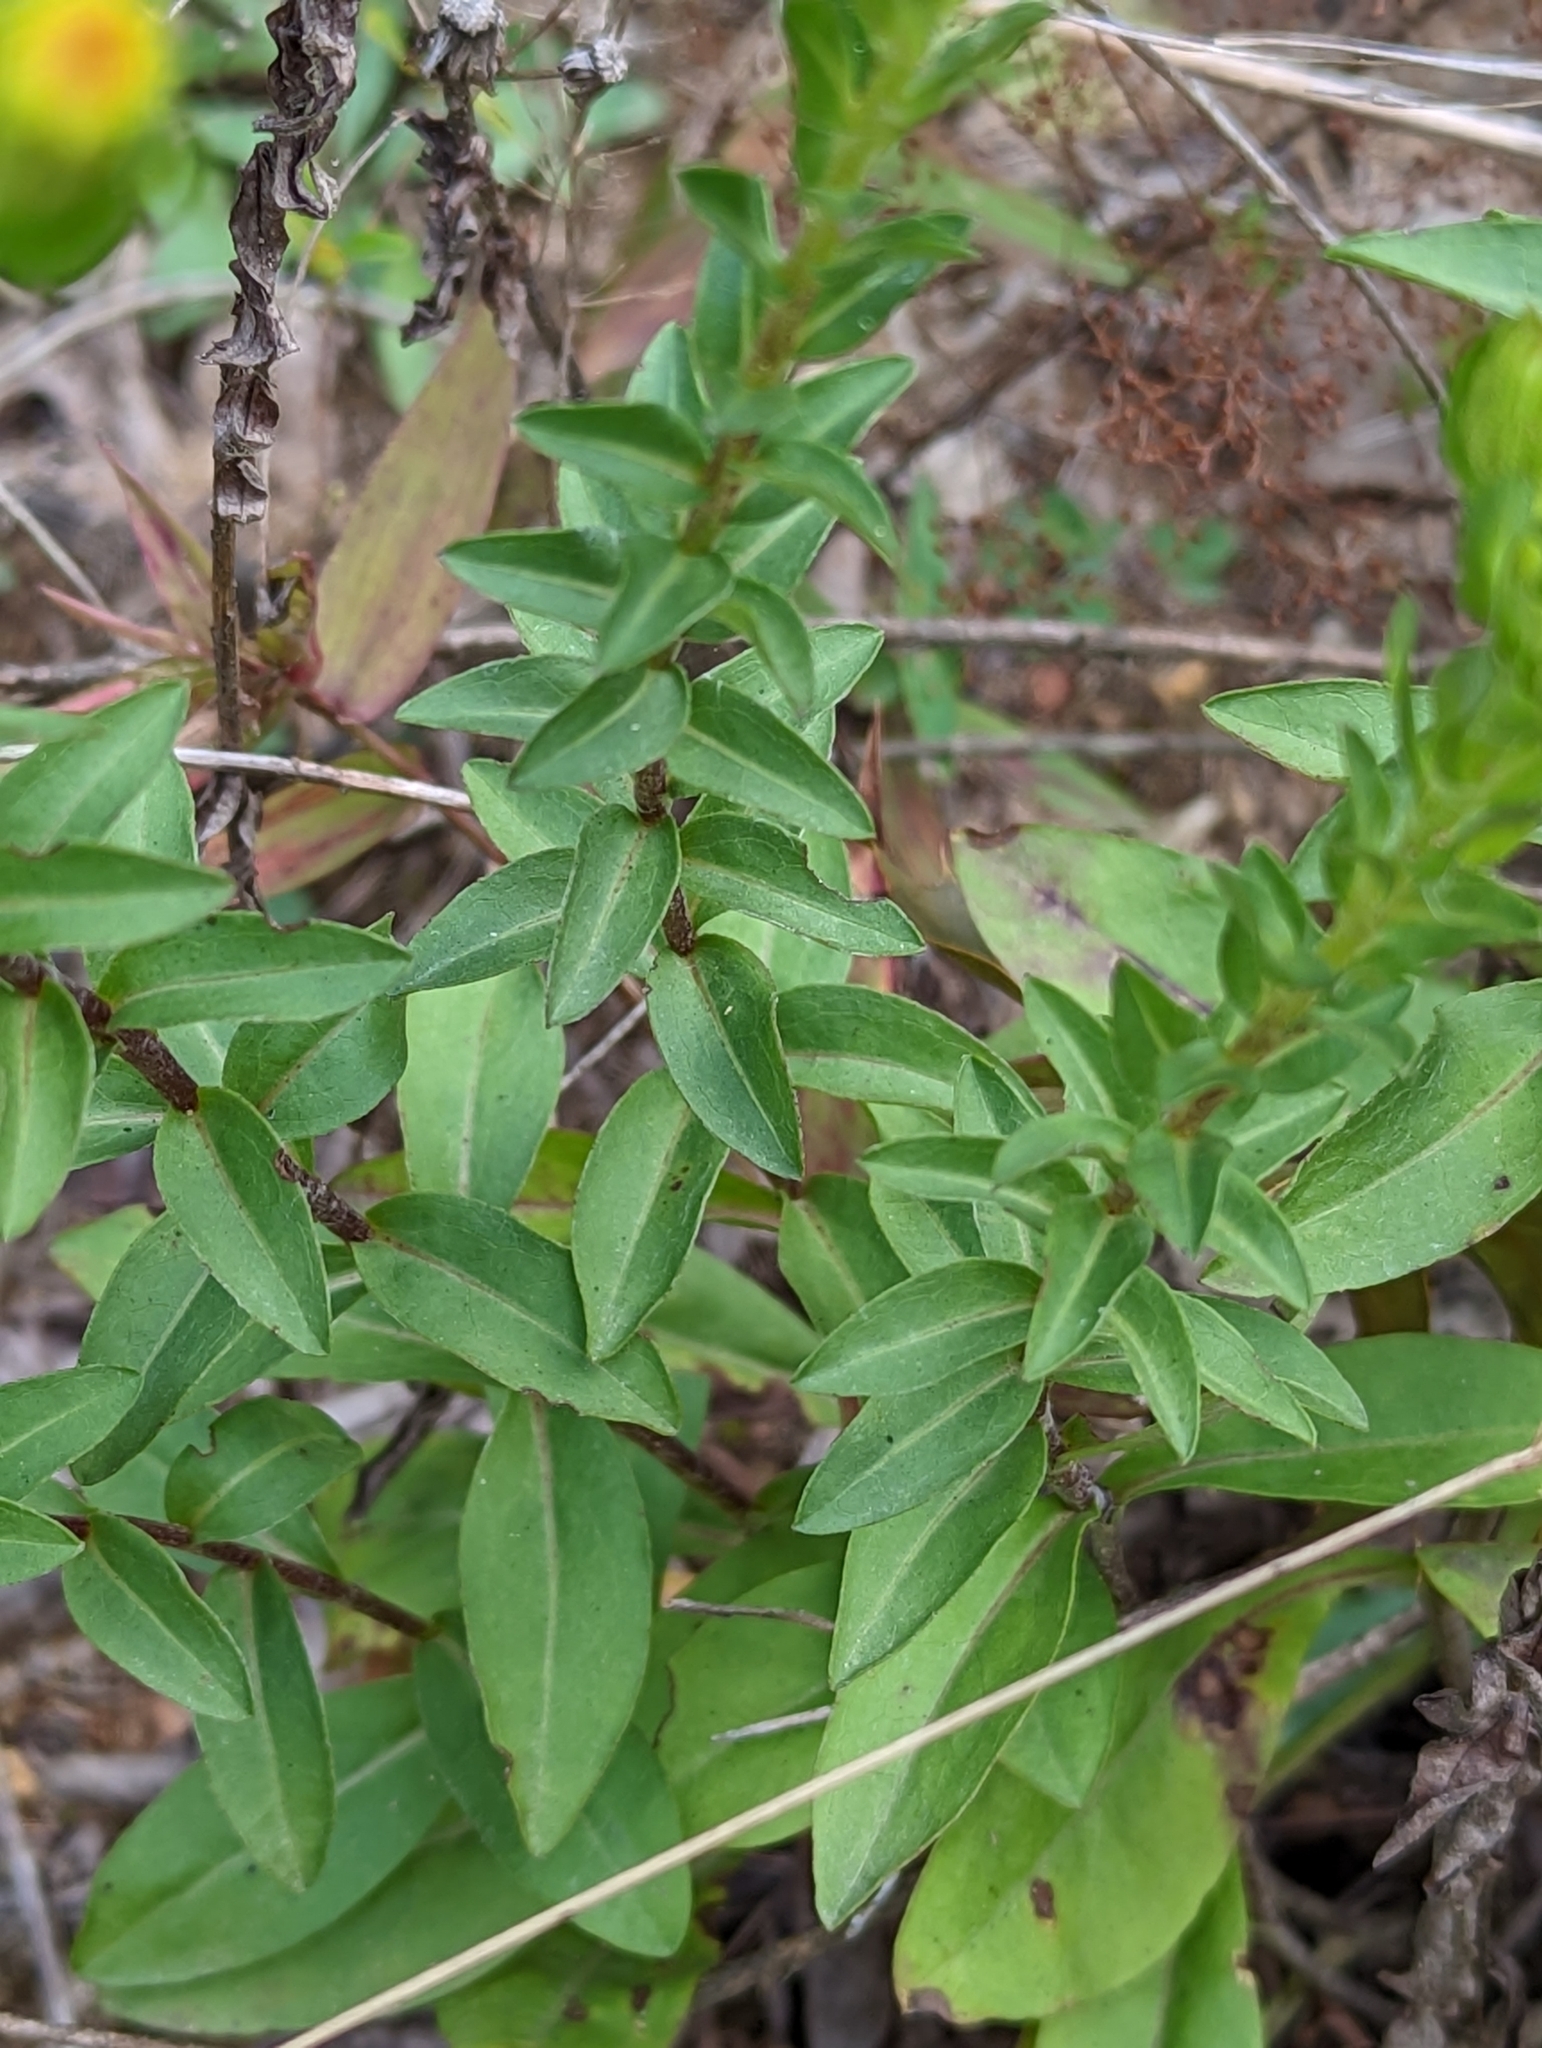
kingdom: Plantae
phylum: Tracheophyta
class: Magnoliopsida
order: Asterales
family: Asteraceae
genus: Chrysopsis
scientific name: Chrysopsis mariana
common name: Maryland golden-aster
